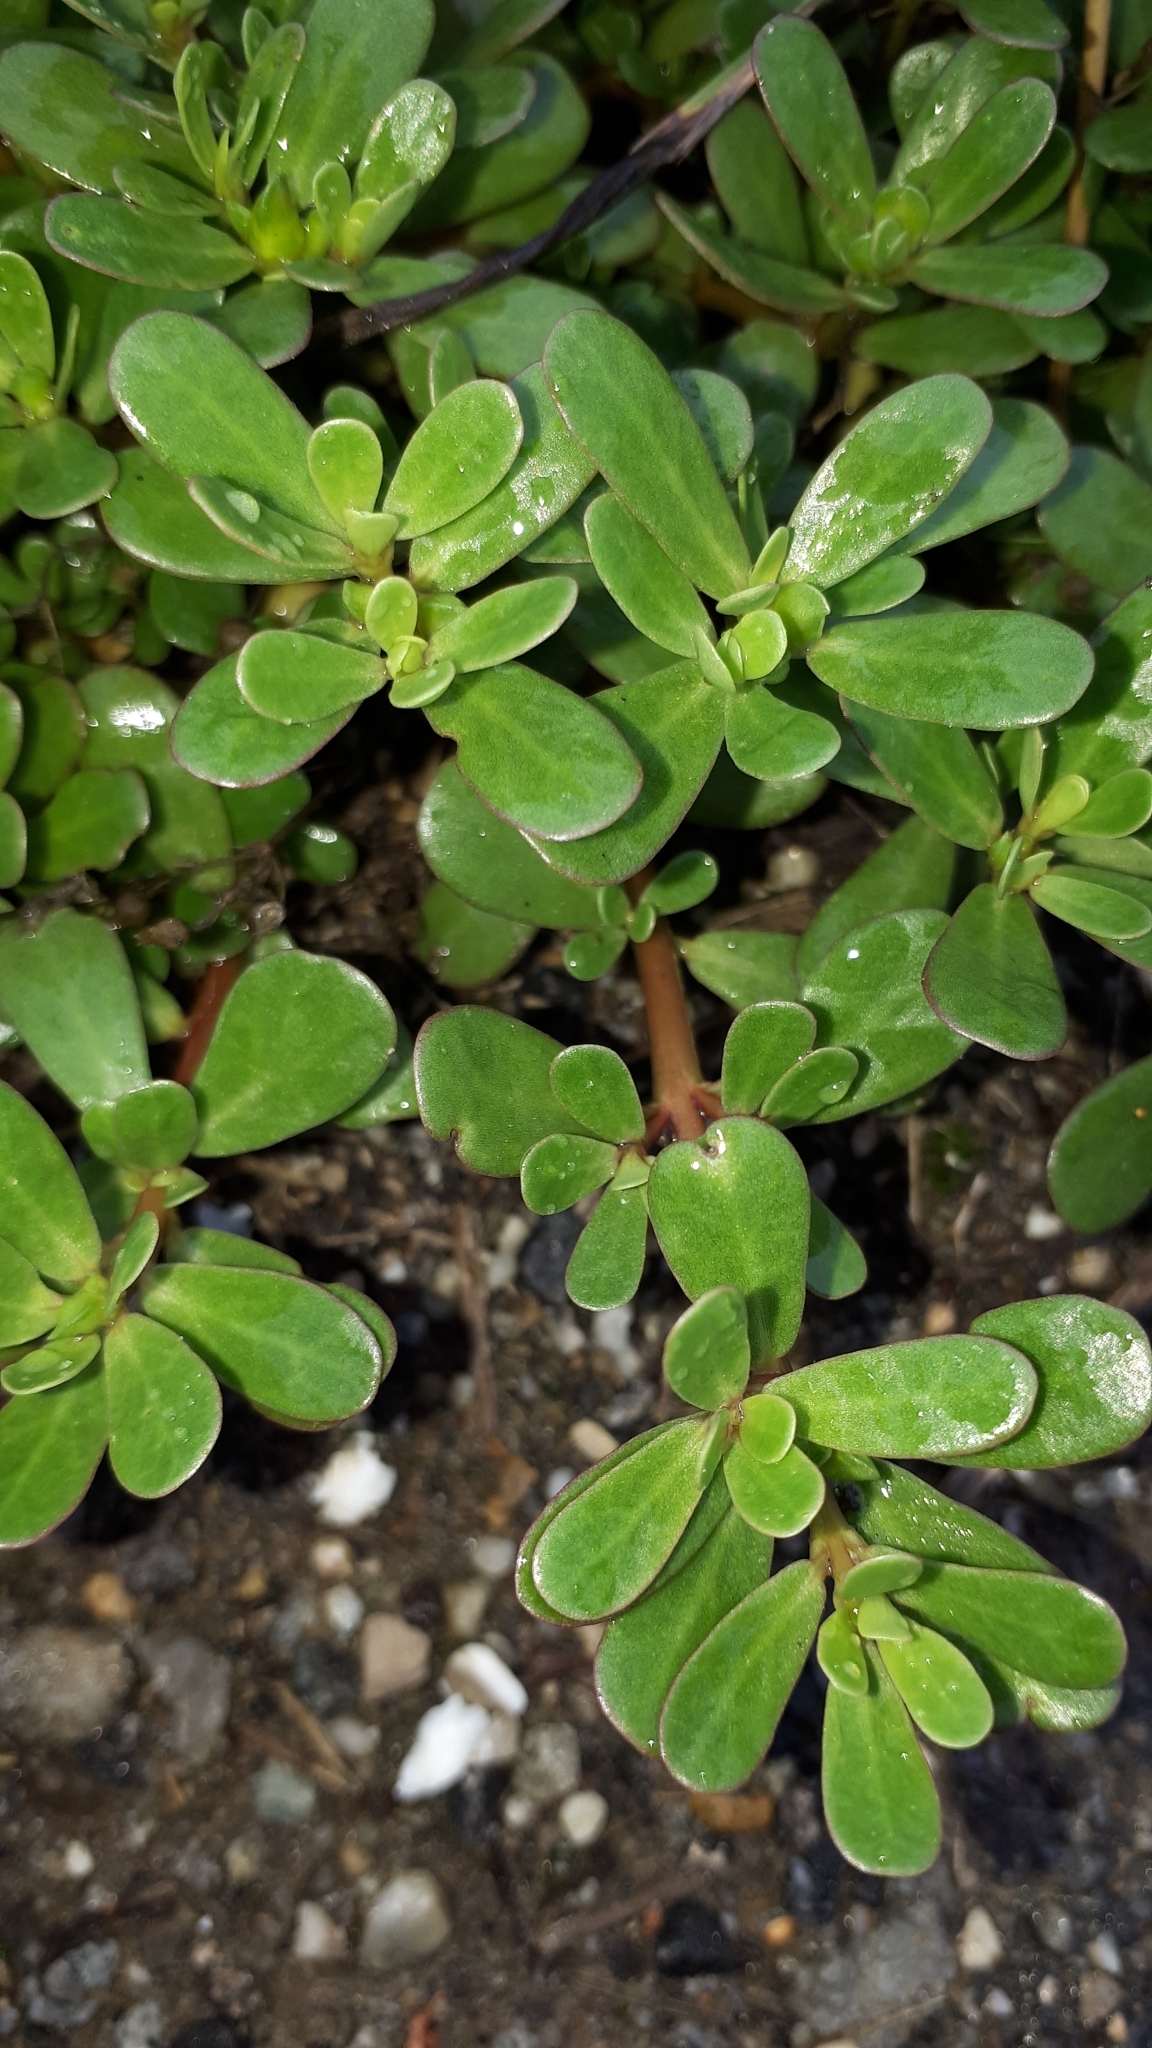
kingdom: Plantae
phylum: Tracheophyta
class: Magnoliopsida
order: Caryophyllales
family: Portulacaceae
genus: Portulaca
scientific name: Portulaca oleracea
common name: Common purslane
